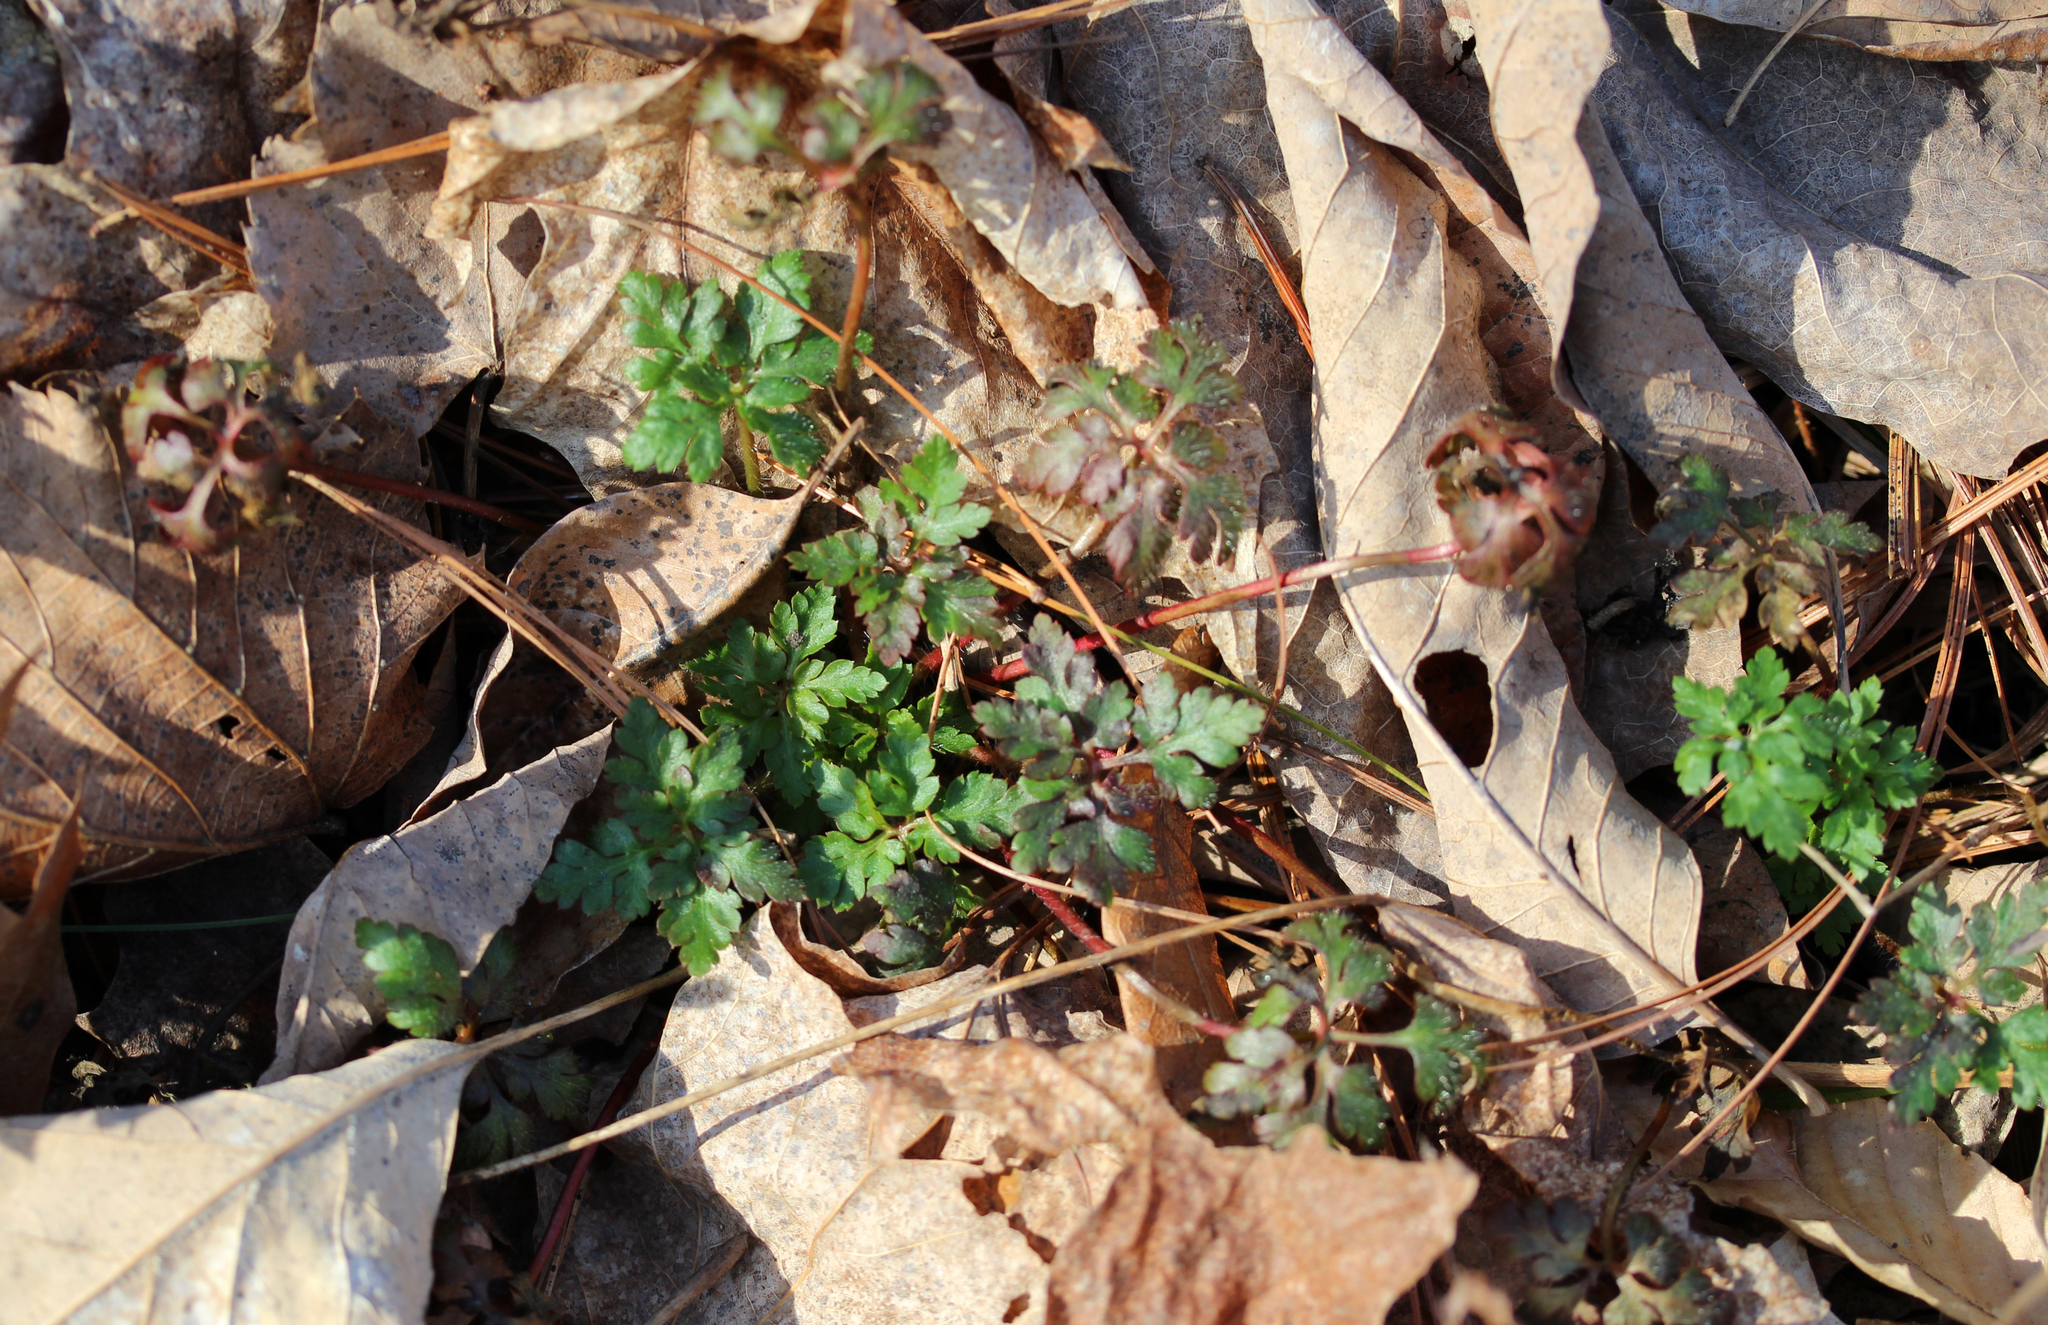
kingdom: Plantae
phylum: Tracheophyta
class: Magnoliopsida
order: Geraniales
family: Geraniaceae
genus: Geranium
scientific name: Geranium robertianum
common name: Herb-robert
